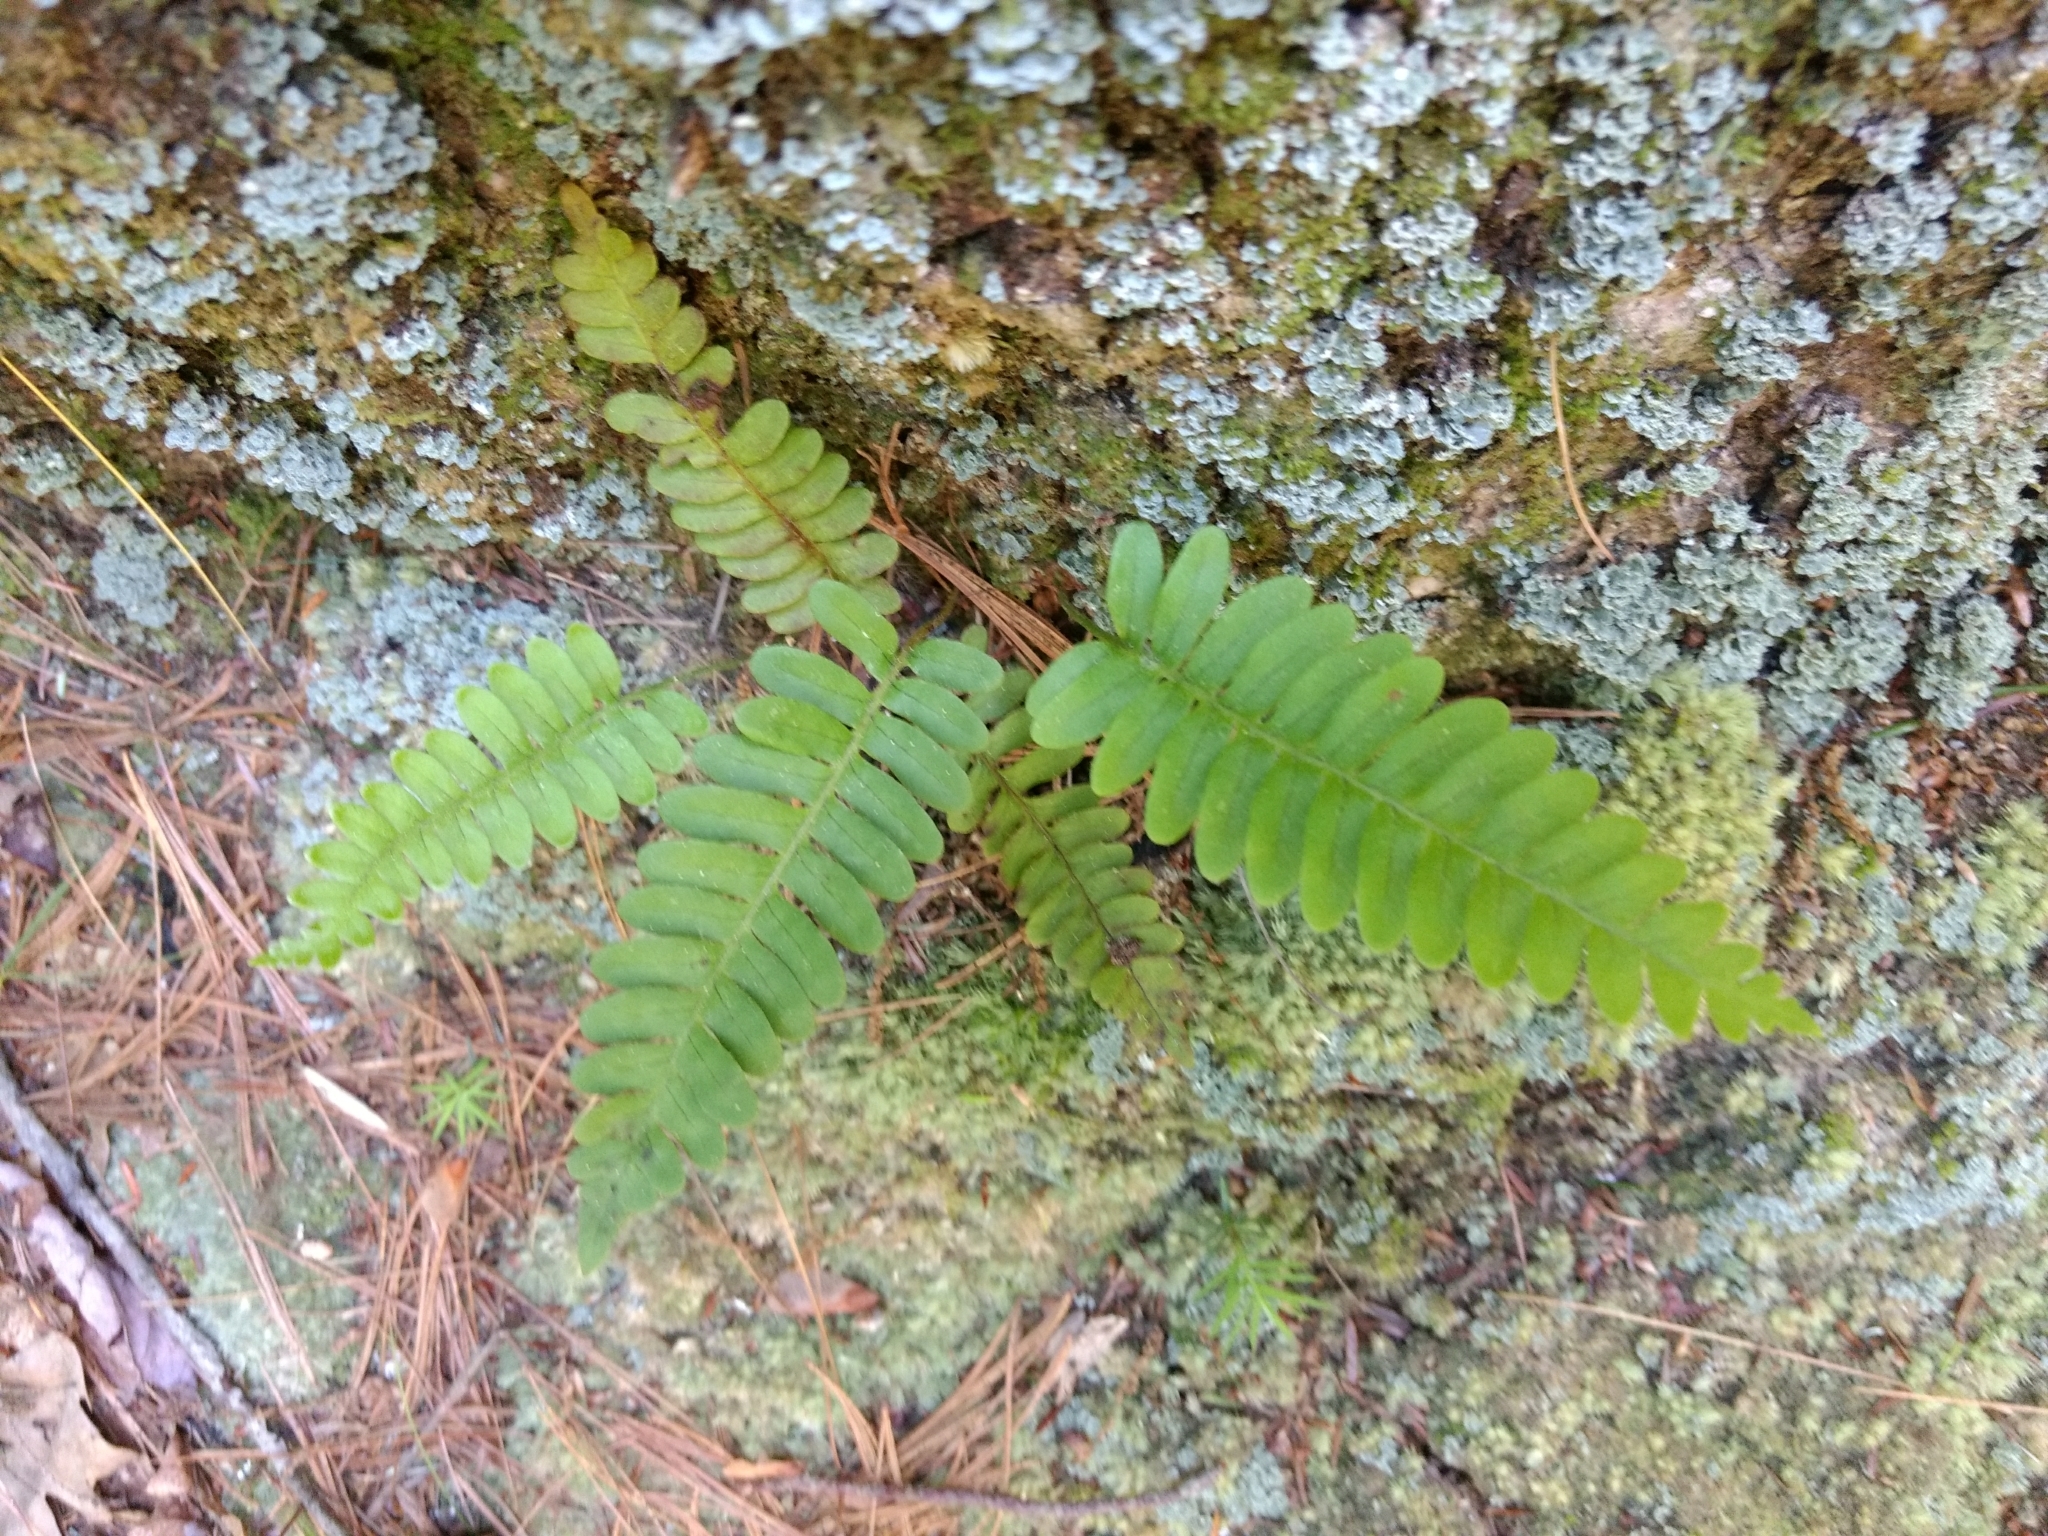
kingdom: Plantae
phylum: Tracheophyta
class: Polypodiopsida
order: Polypodiales
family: Polypodiaceae
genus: Polypodium
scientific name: Polypodium virginianum
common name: American wall fern
